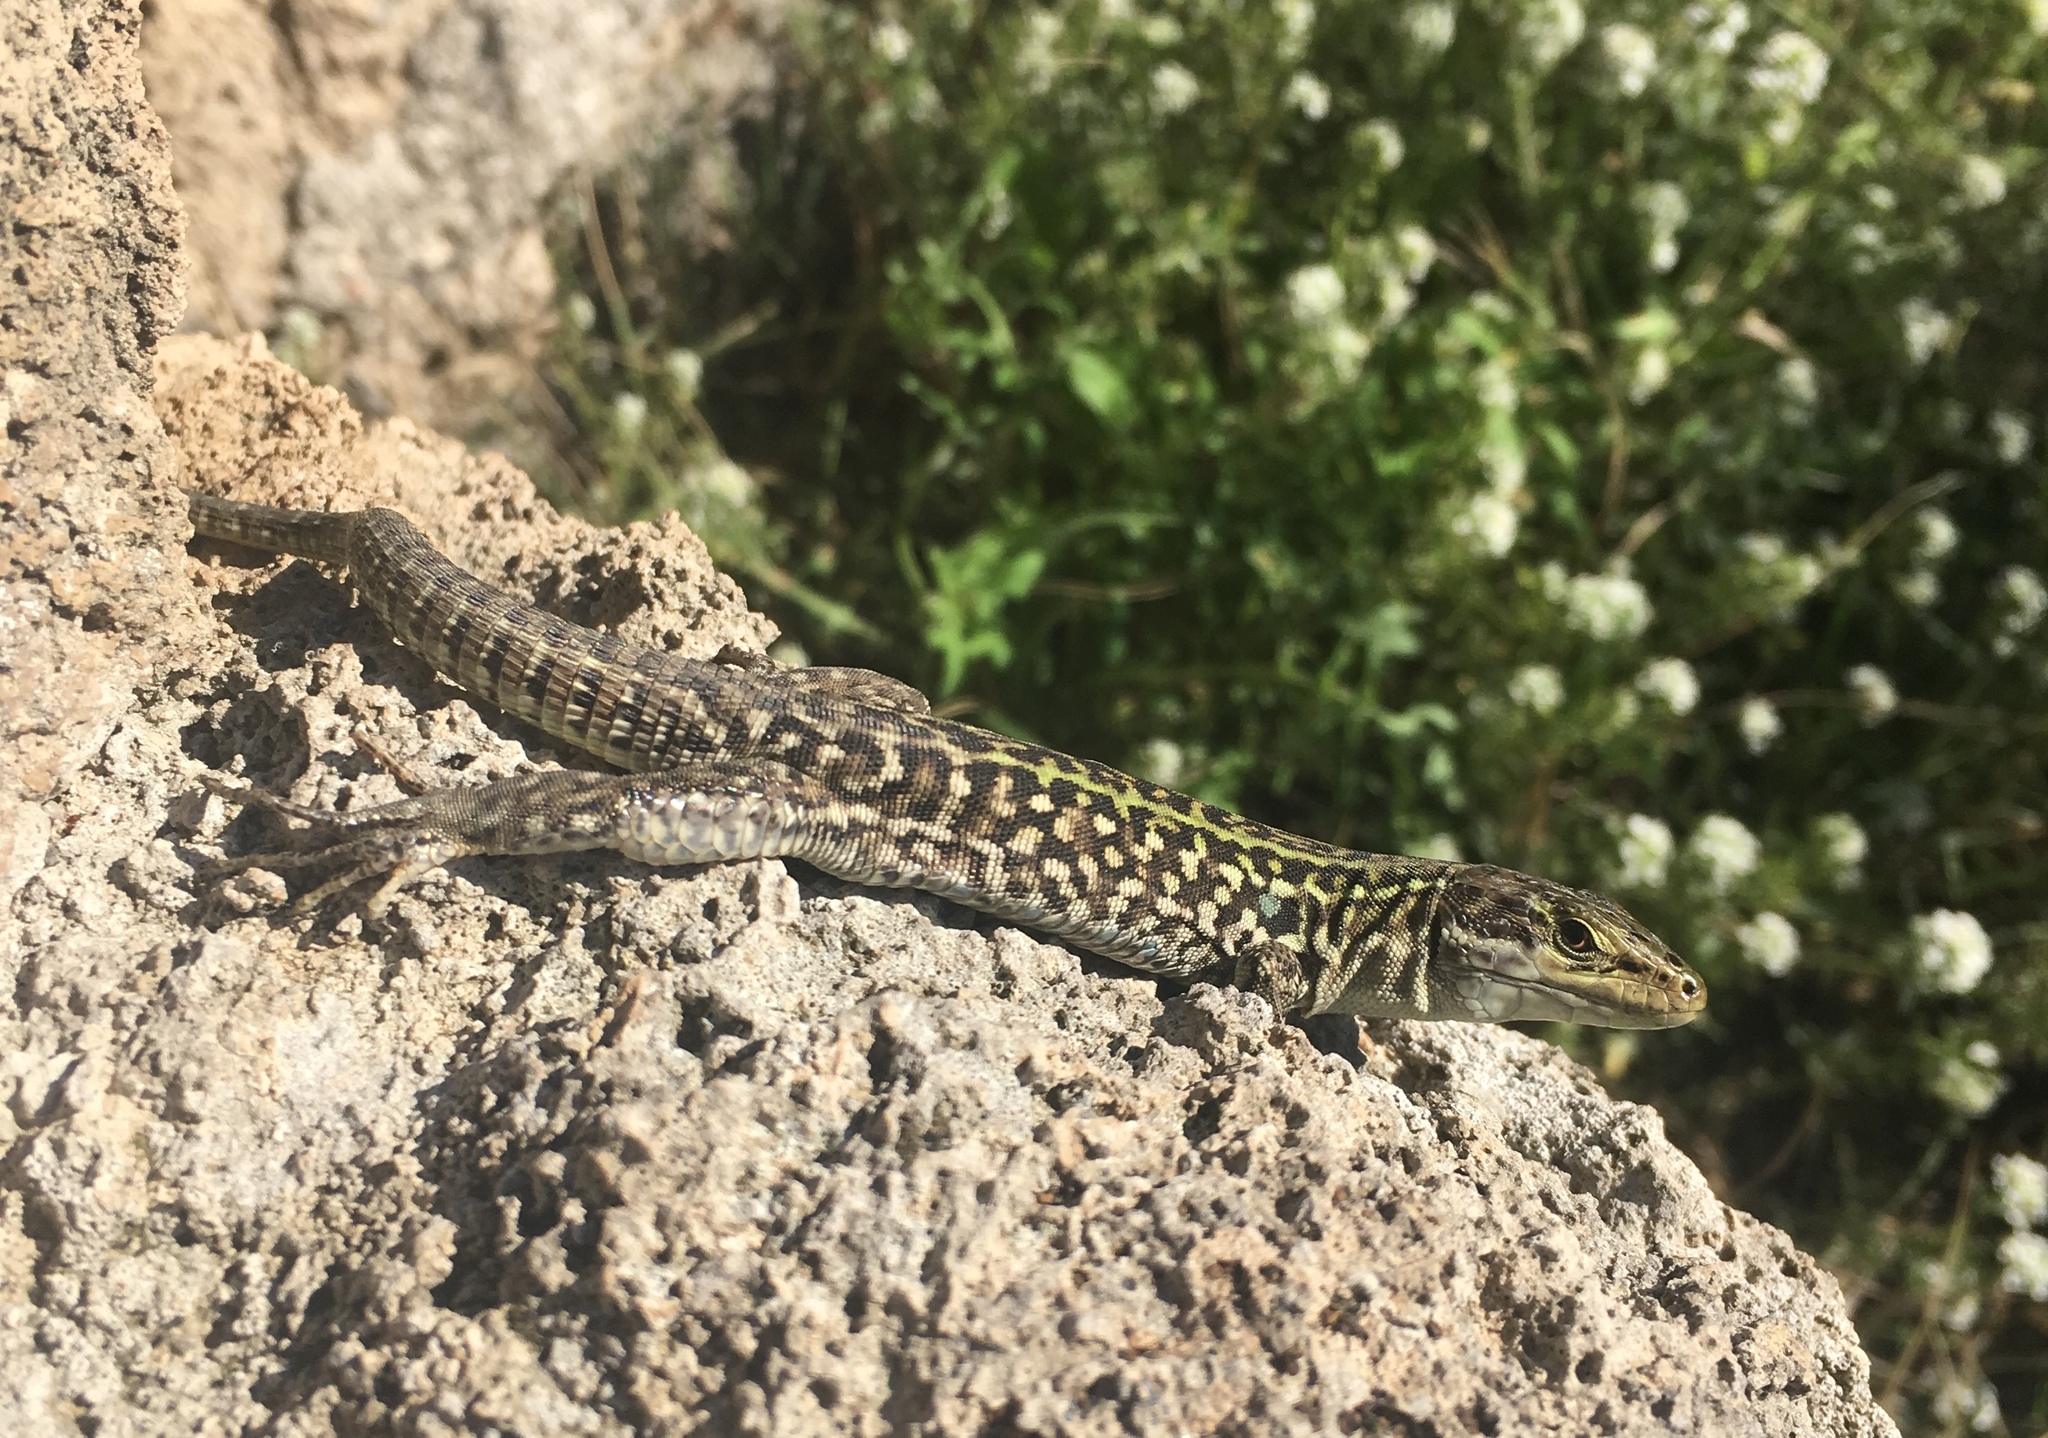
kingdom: Animalia
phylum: Chordata
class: Squamata
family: Lacertidae
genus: Podarcis
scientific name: Podarcis siculus
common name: Italian wall lizard
